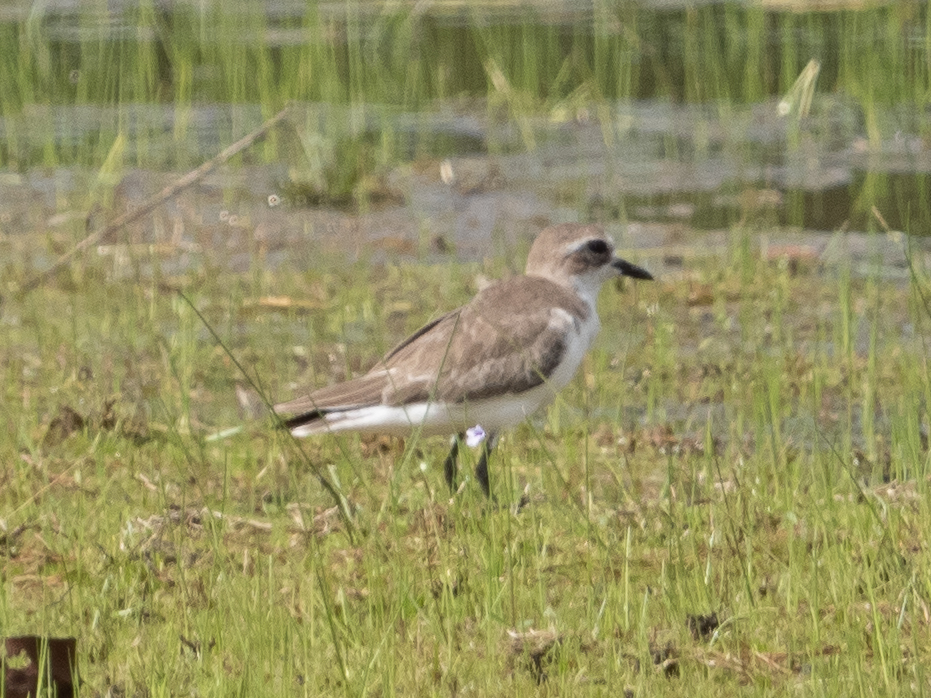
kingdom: Animalia
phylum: Chordata
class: Aves
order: Charadriiformes
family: Charadriidae
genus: Anarhynchus
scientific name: Anarhynchus
